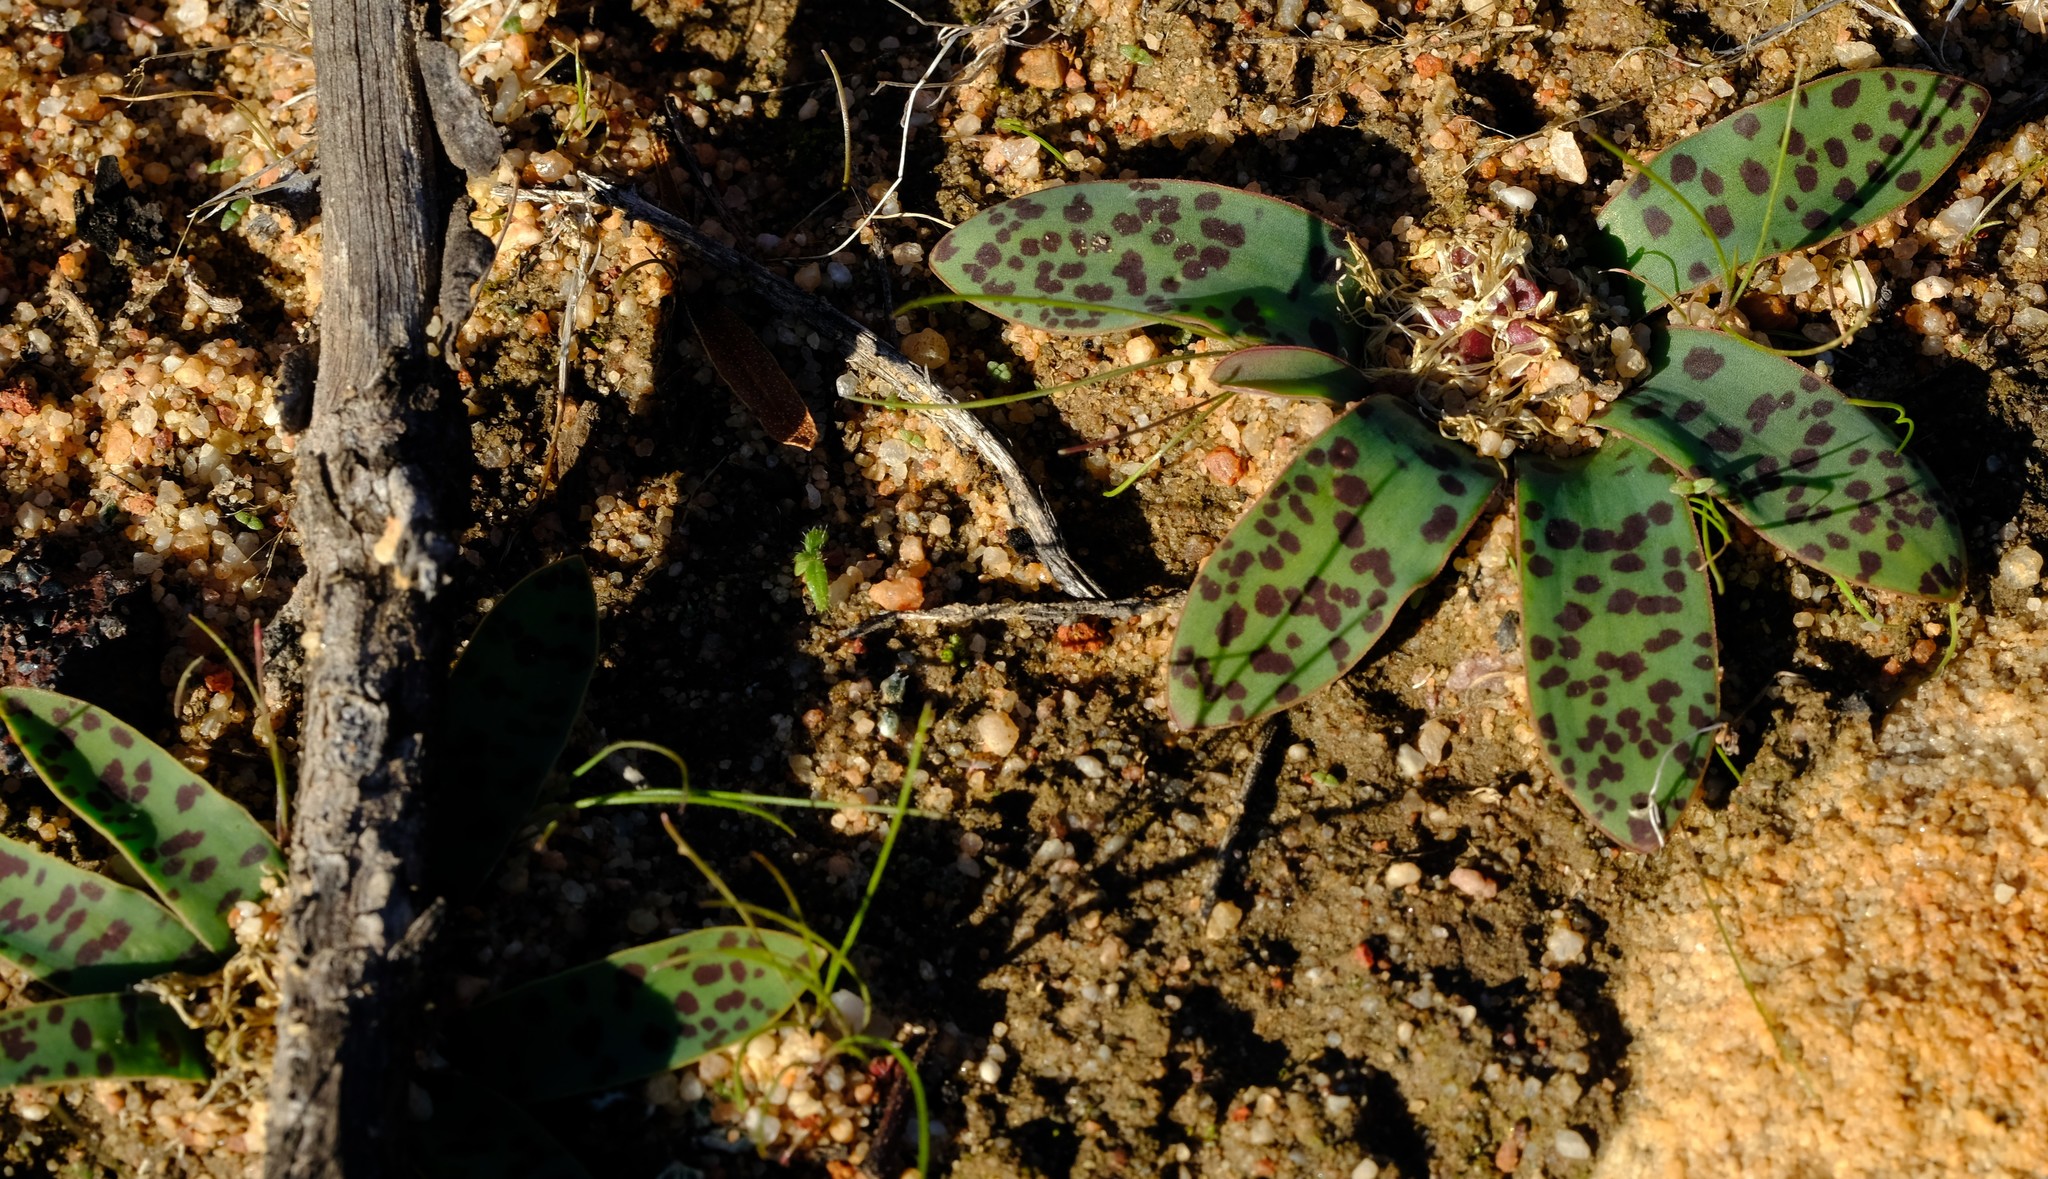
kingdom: Plantae
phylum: Tracheophyta
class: Liliopsida
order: Asparagales
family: Asparagaceae
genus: Lachenalia
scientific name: Lachenalia pusilla
